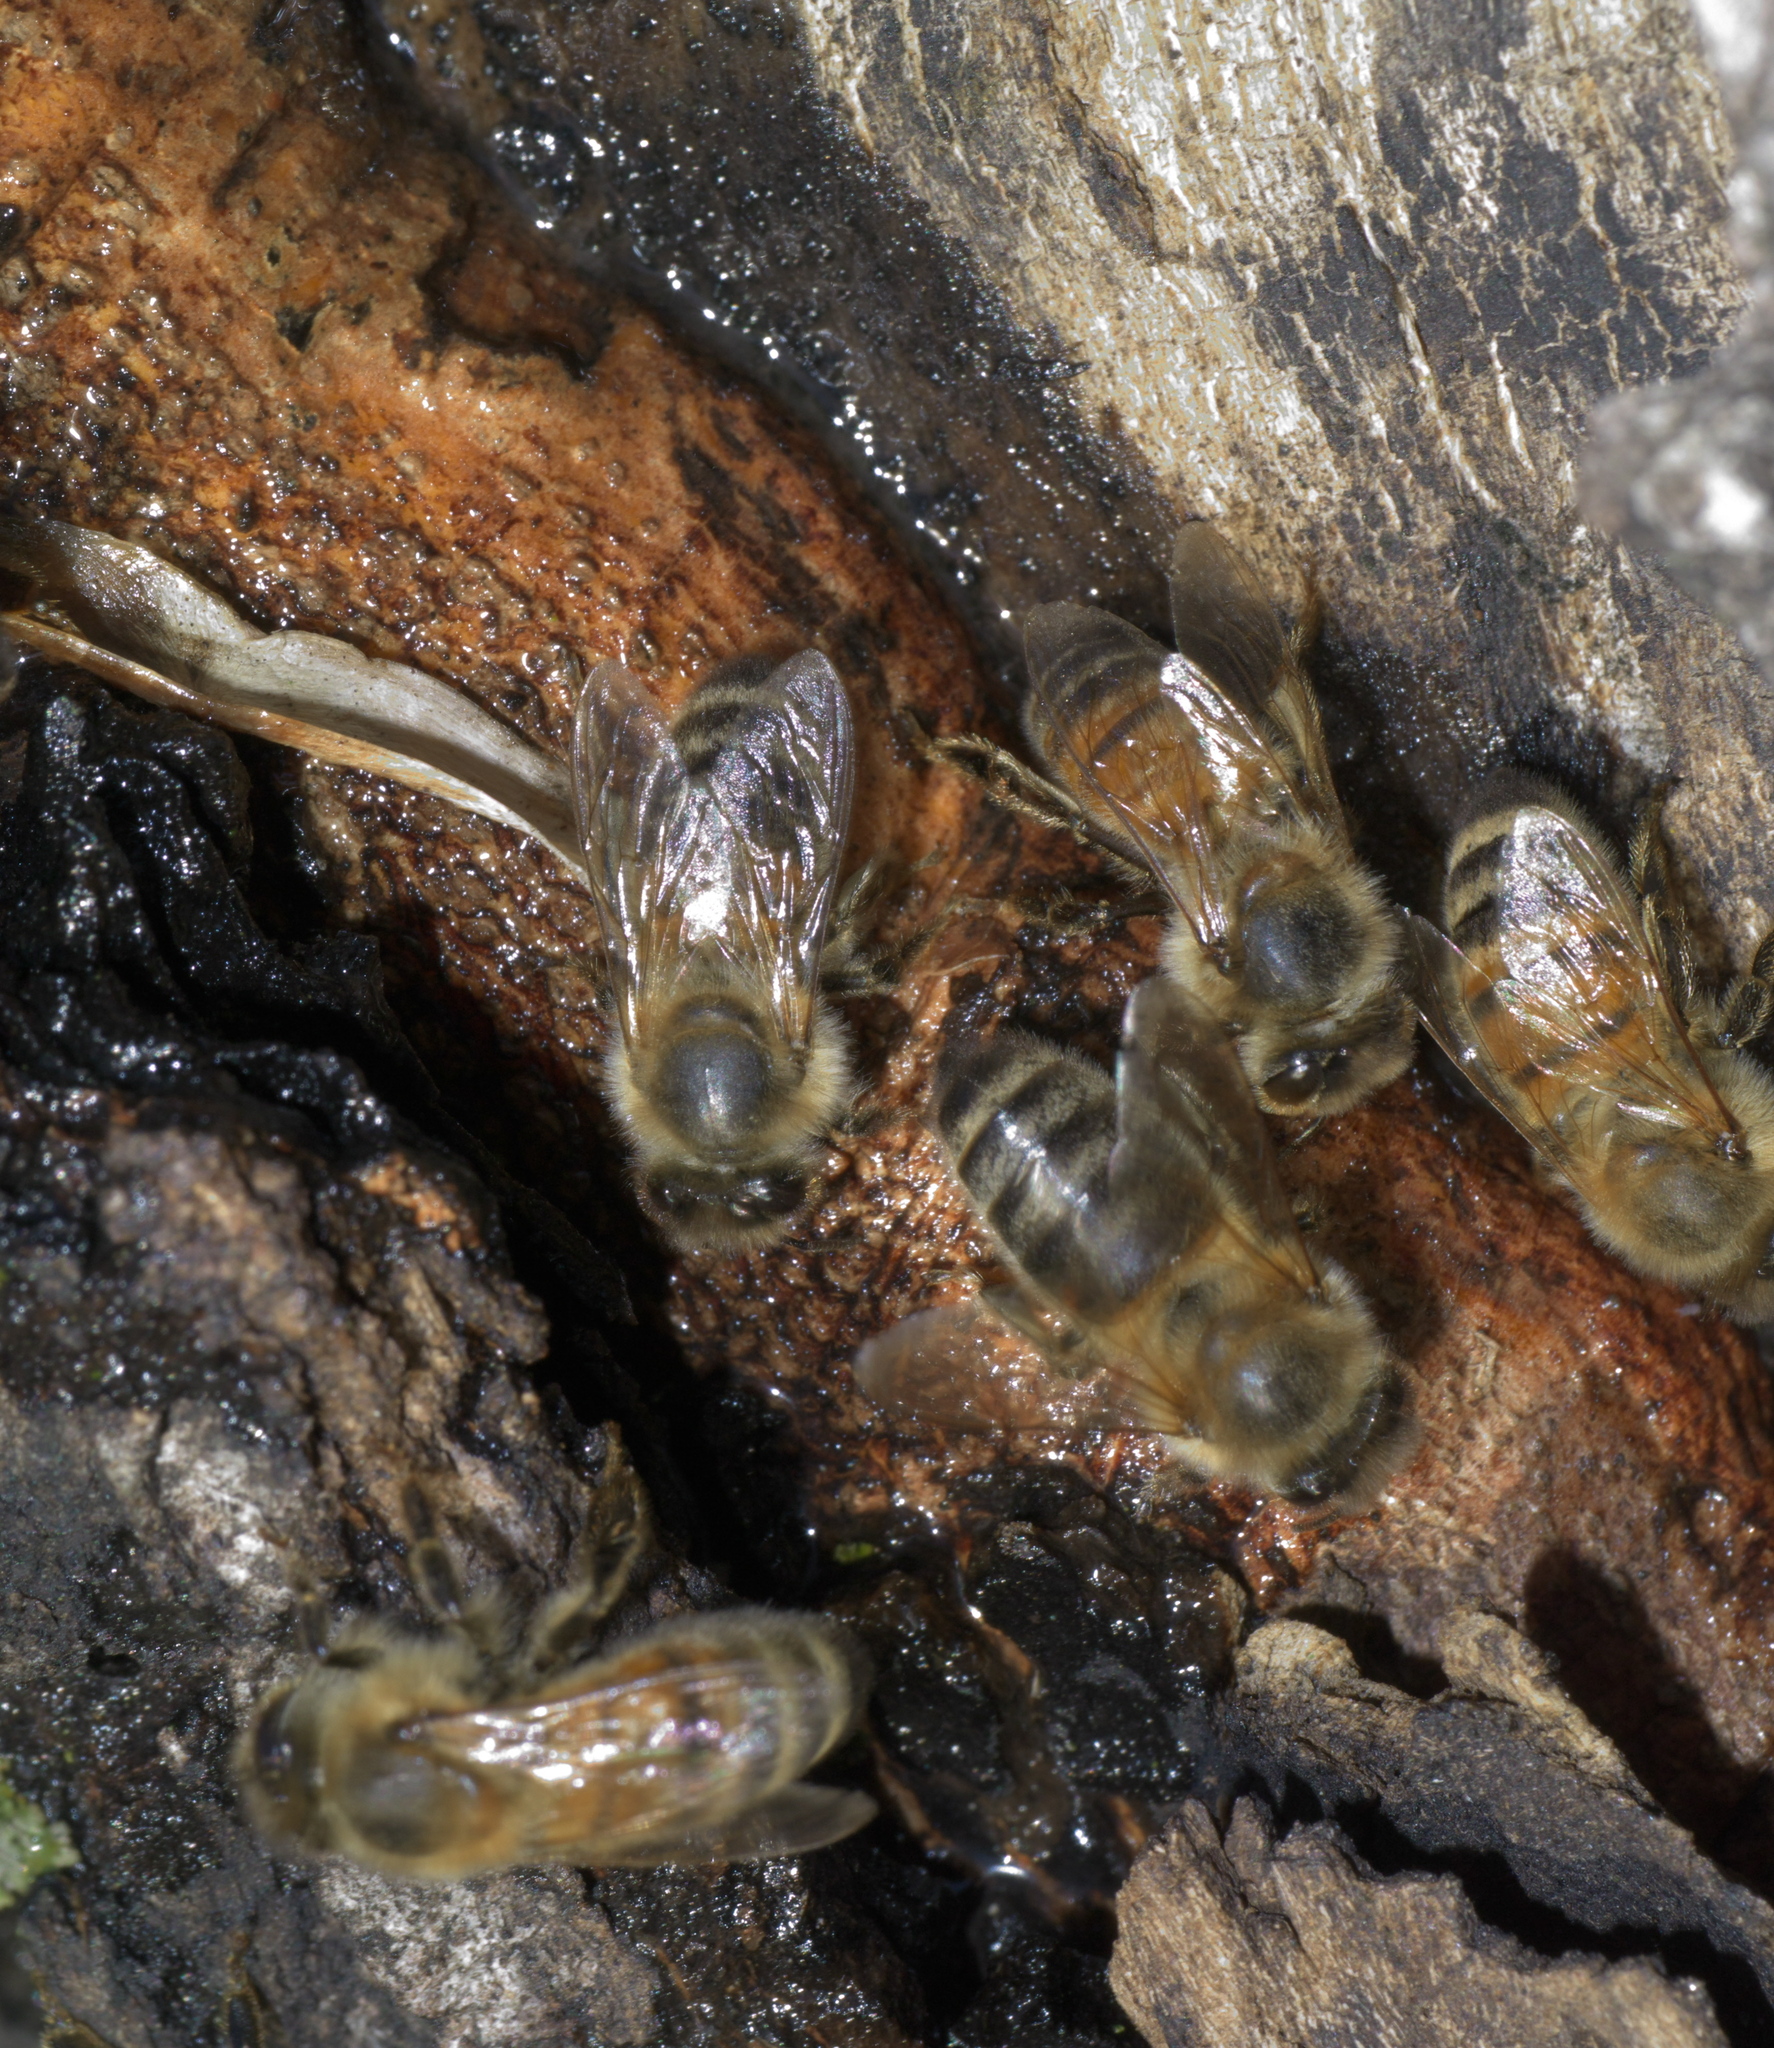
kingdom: Animalia
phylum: Arthropoda
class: Insecta
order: Hymenoptera
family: Apidae
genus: Apis
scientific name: Apis mellifera
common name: Honey bee
